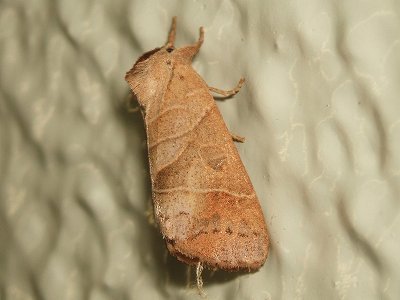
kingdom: Animalia
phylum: Arthropoda
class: Insecta
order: Lepidoptera
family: Notodontidae
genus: Clostera
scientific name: Clostera anastomosis
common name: Poplar tip moth
